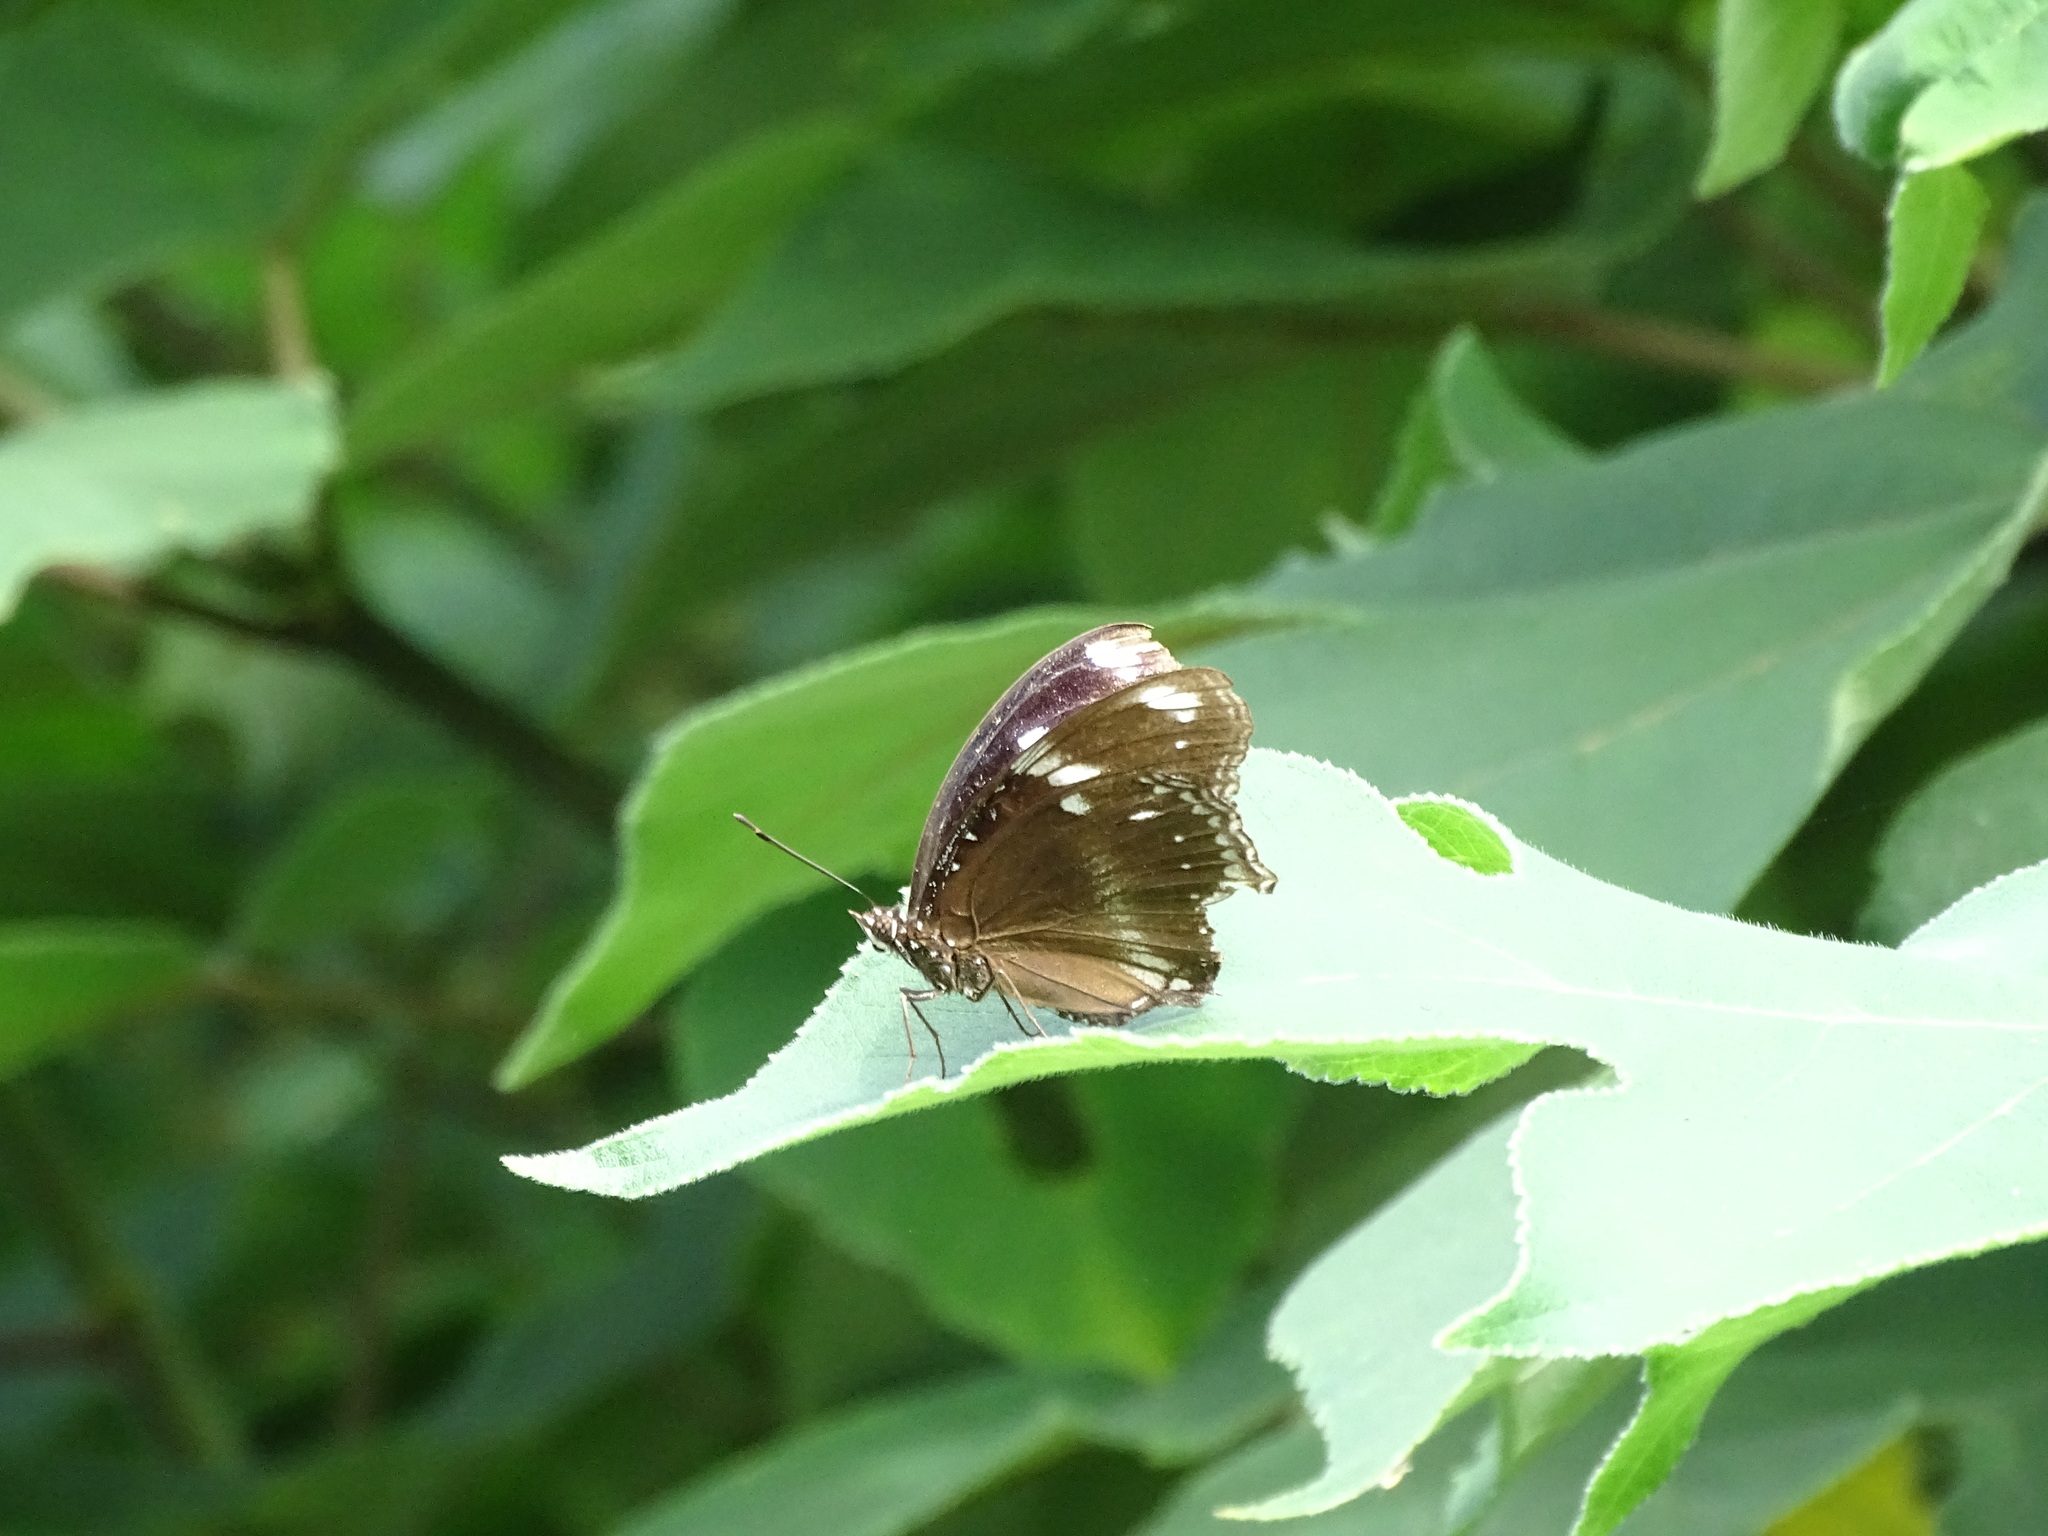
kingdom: Animalia
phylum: Arthropoda
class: Insecta
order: Lepidoptera
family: Nymphalidae
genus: Hypolimnas
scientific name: Hypolimnas bolina
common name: Great eggfly
